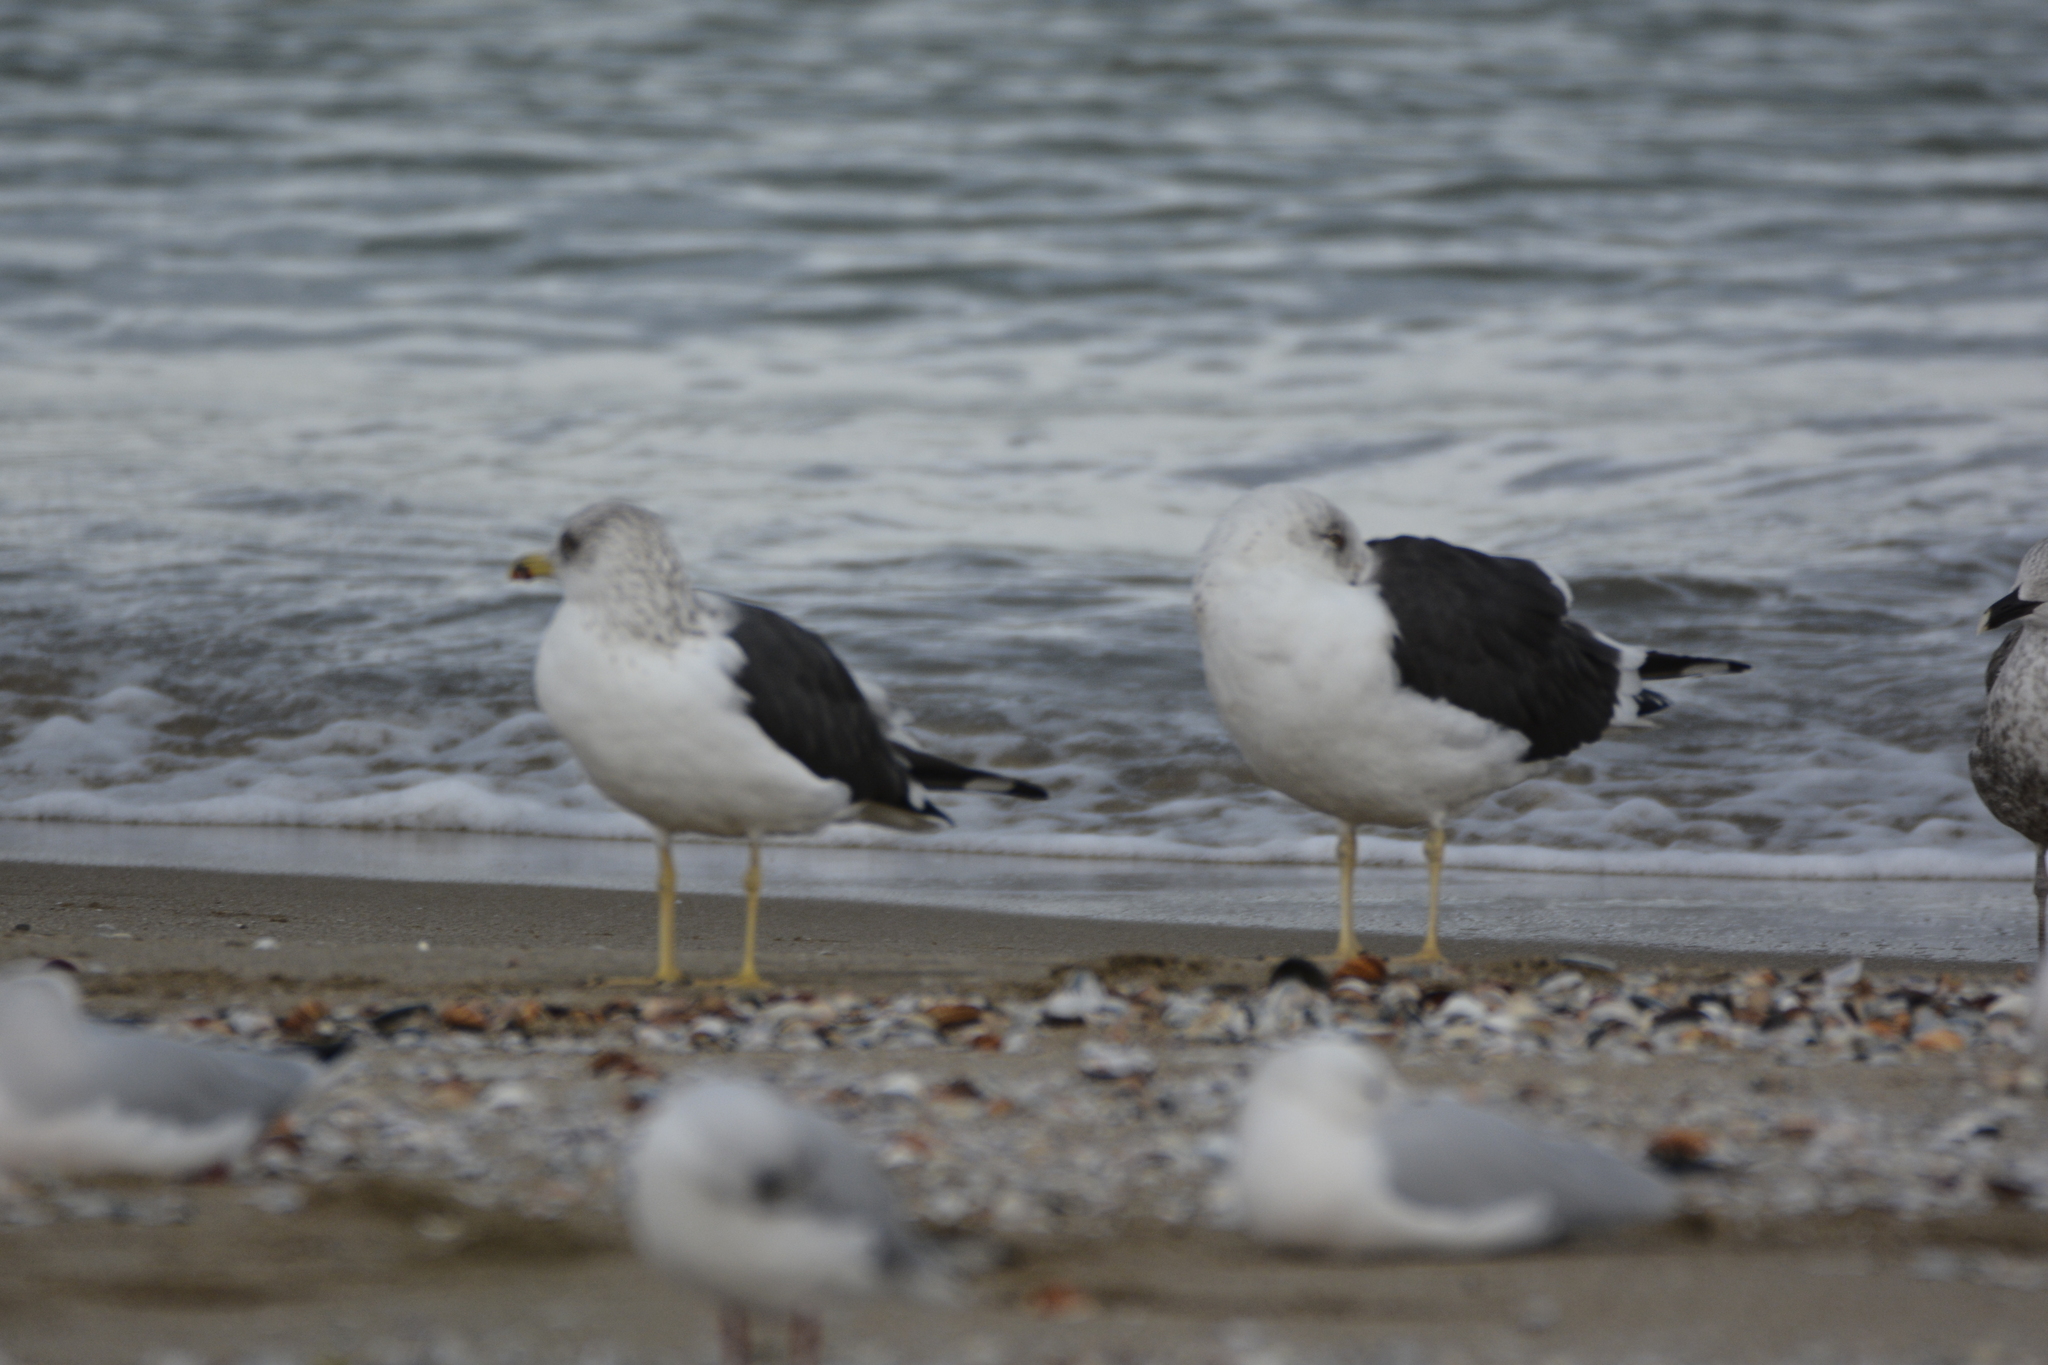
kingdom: Animalia
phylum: Chordata
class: Aves
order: Charadriiformes
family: Laridae
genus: Larus
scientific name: Larus fuscus
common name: Lesser black-backed gull
